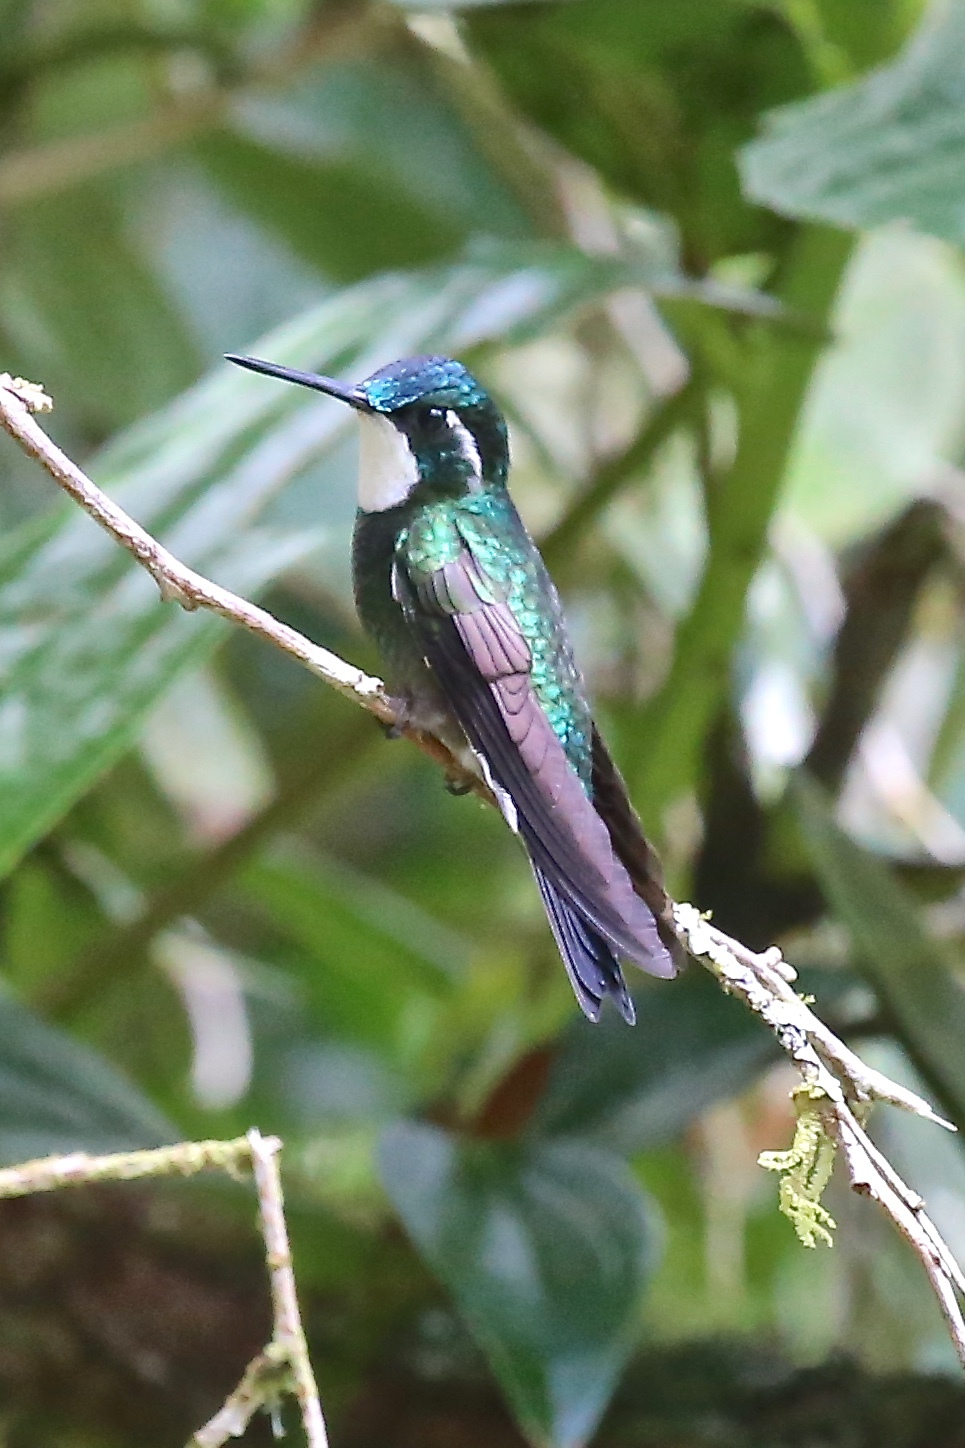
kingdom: Animalia
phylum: Chordata
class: Aves
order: Apodiformes
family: Trochilidae
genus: Lampornis
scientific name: Lampornis castaneoventris
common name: White-throated mountain-gem
